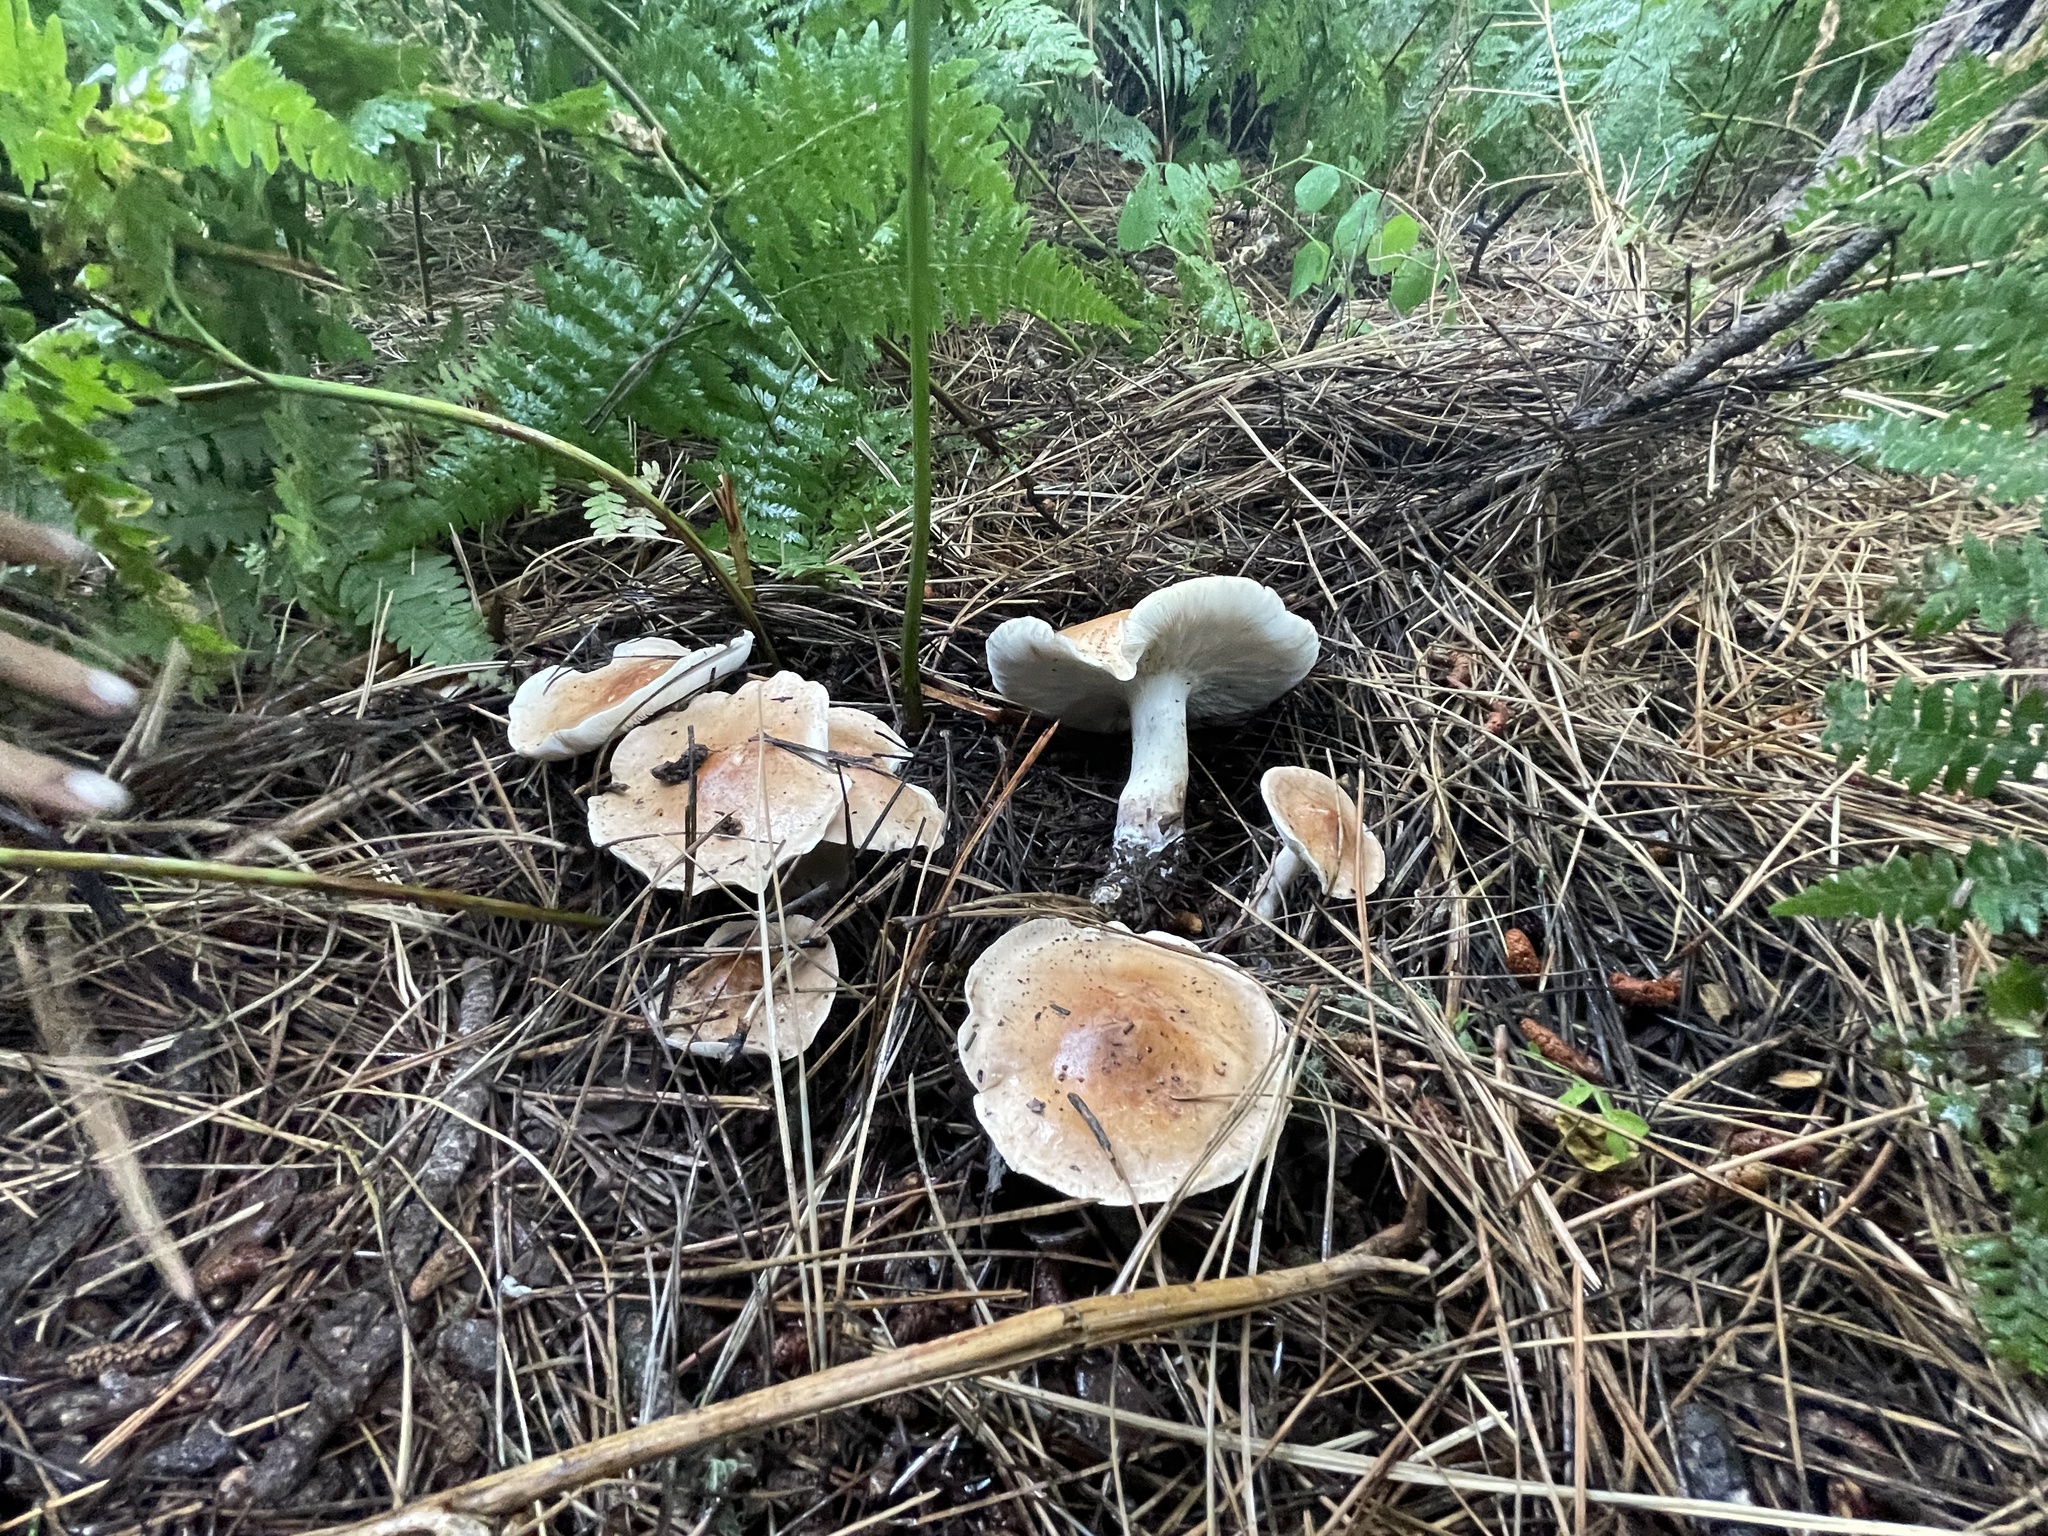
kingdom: Fungi
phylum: Basidiomycota
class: Agaricomycetes
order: Agaricales
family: Tricholomataceae
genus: Leucopaxillus
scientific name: Leucopaxillus gentianeus
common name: Bitter funnel
